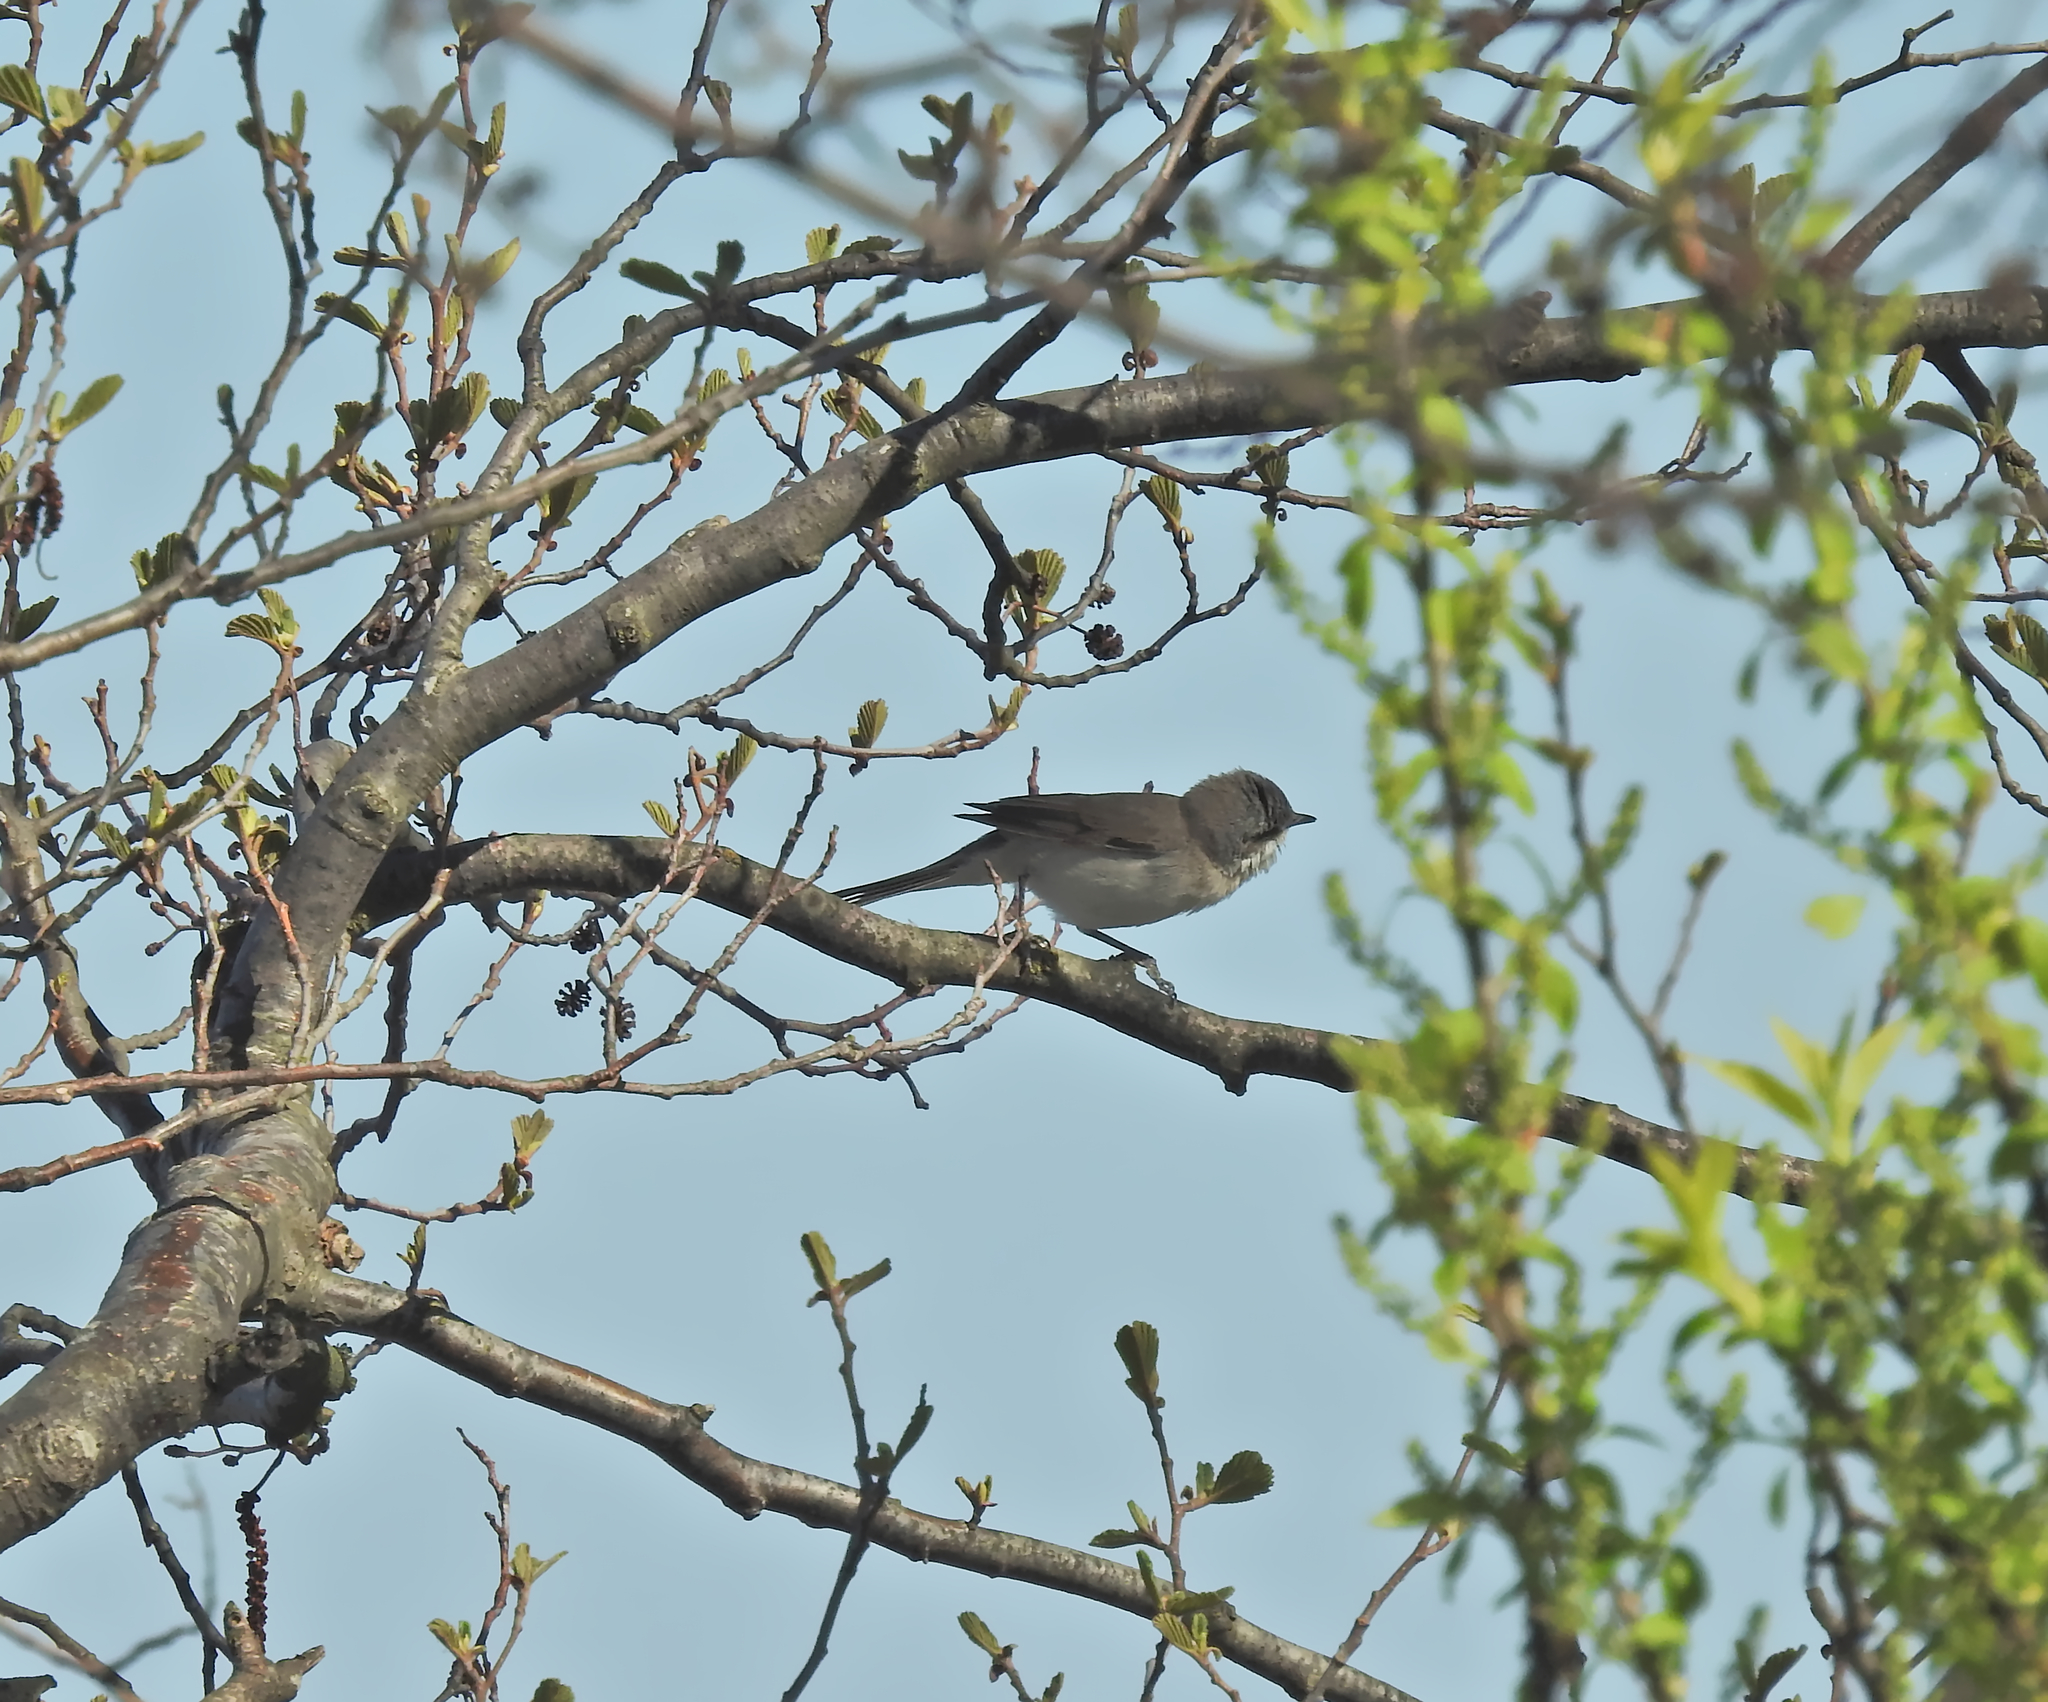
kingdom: Animalia
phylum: Chordata
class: Aves
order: Passeriformes
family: Sylviidae
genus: Sylvia
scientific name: Sylvia communis
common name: Common whitethroat
